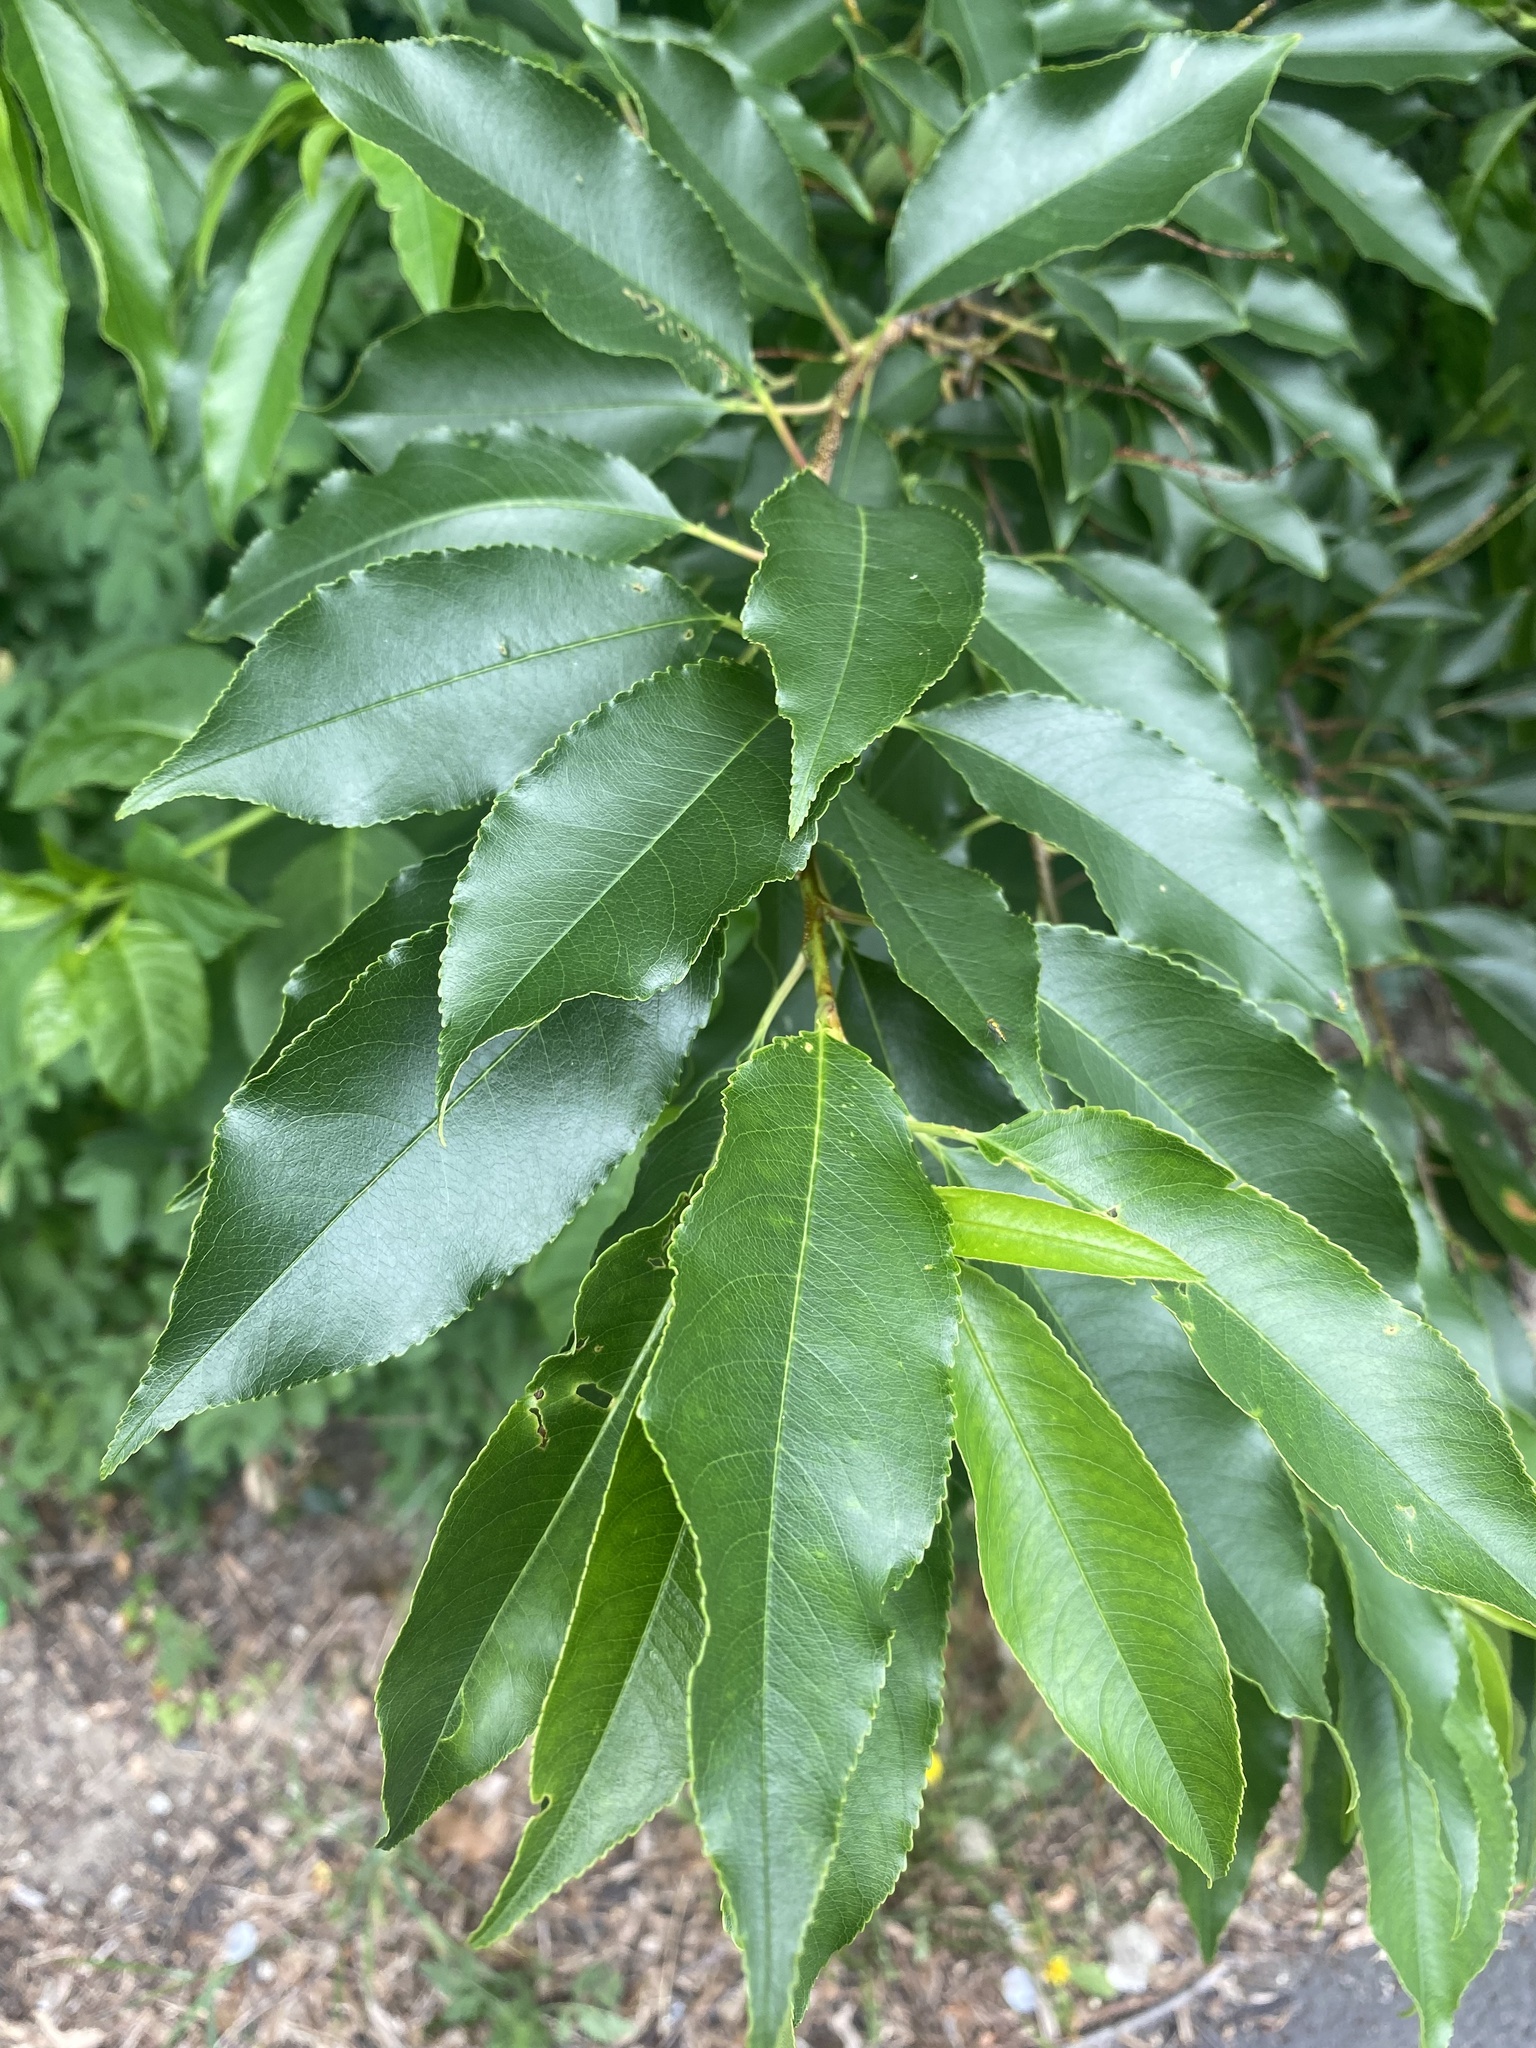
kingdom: Plantae
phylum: Tracheophyta
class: Magnoliopsida
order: Rosales
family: Rosaceae
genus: Prunus
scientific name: Prunus serotina
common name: Black cherry
